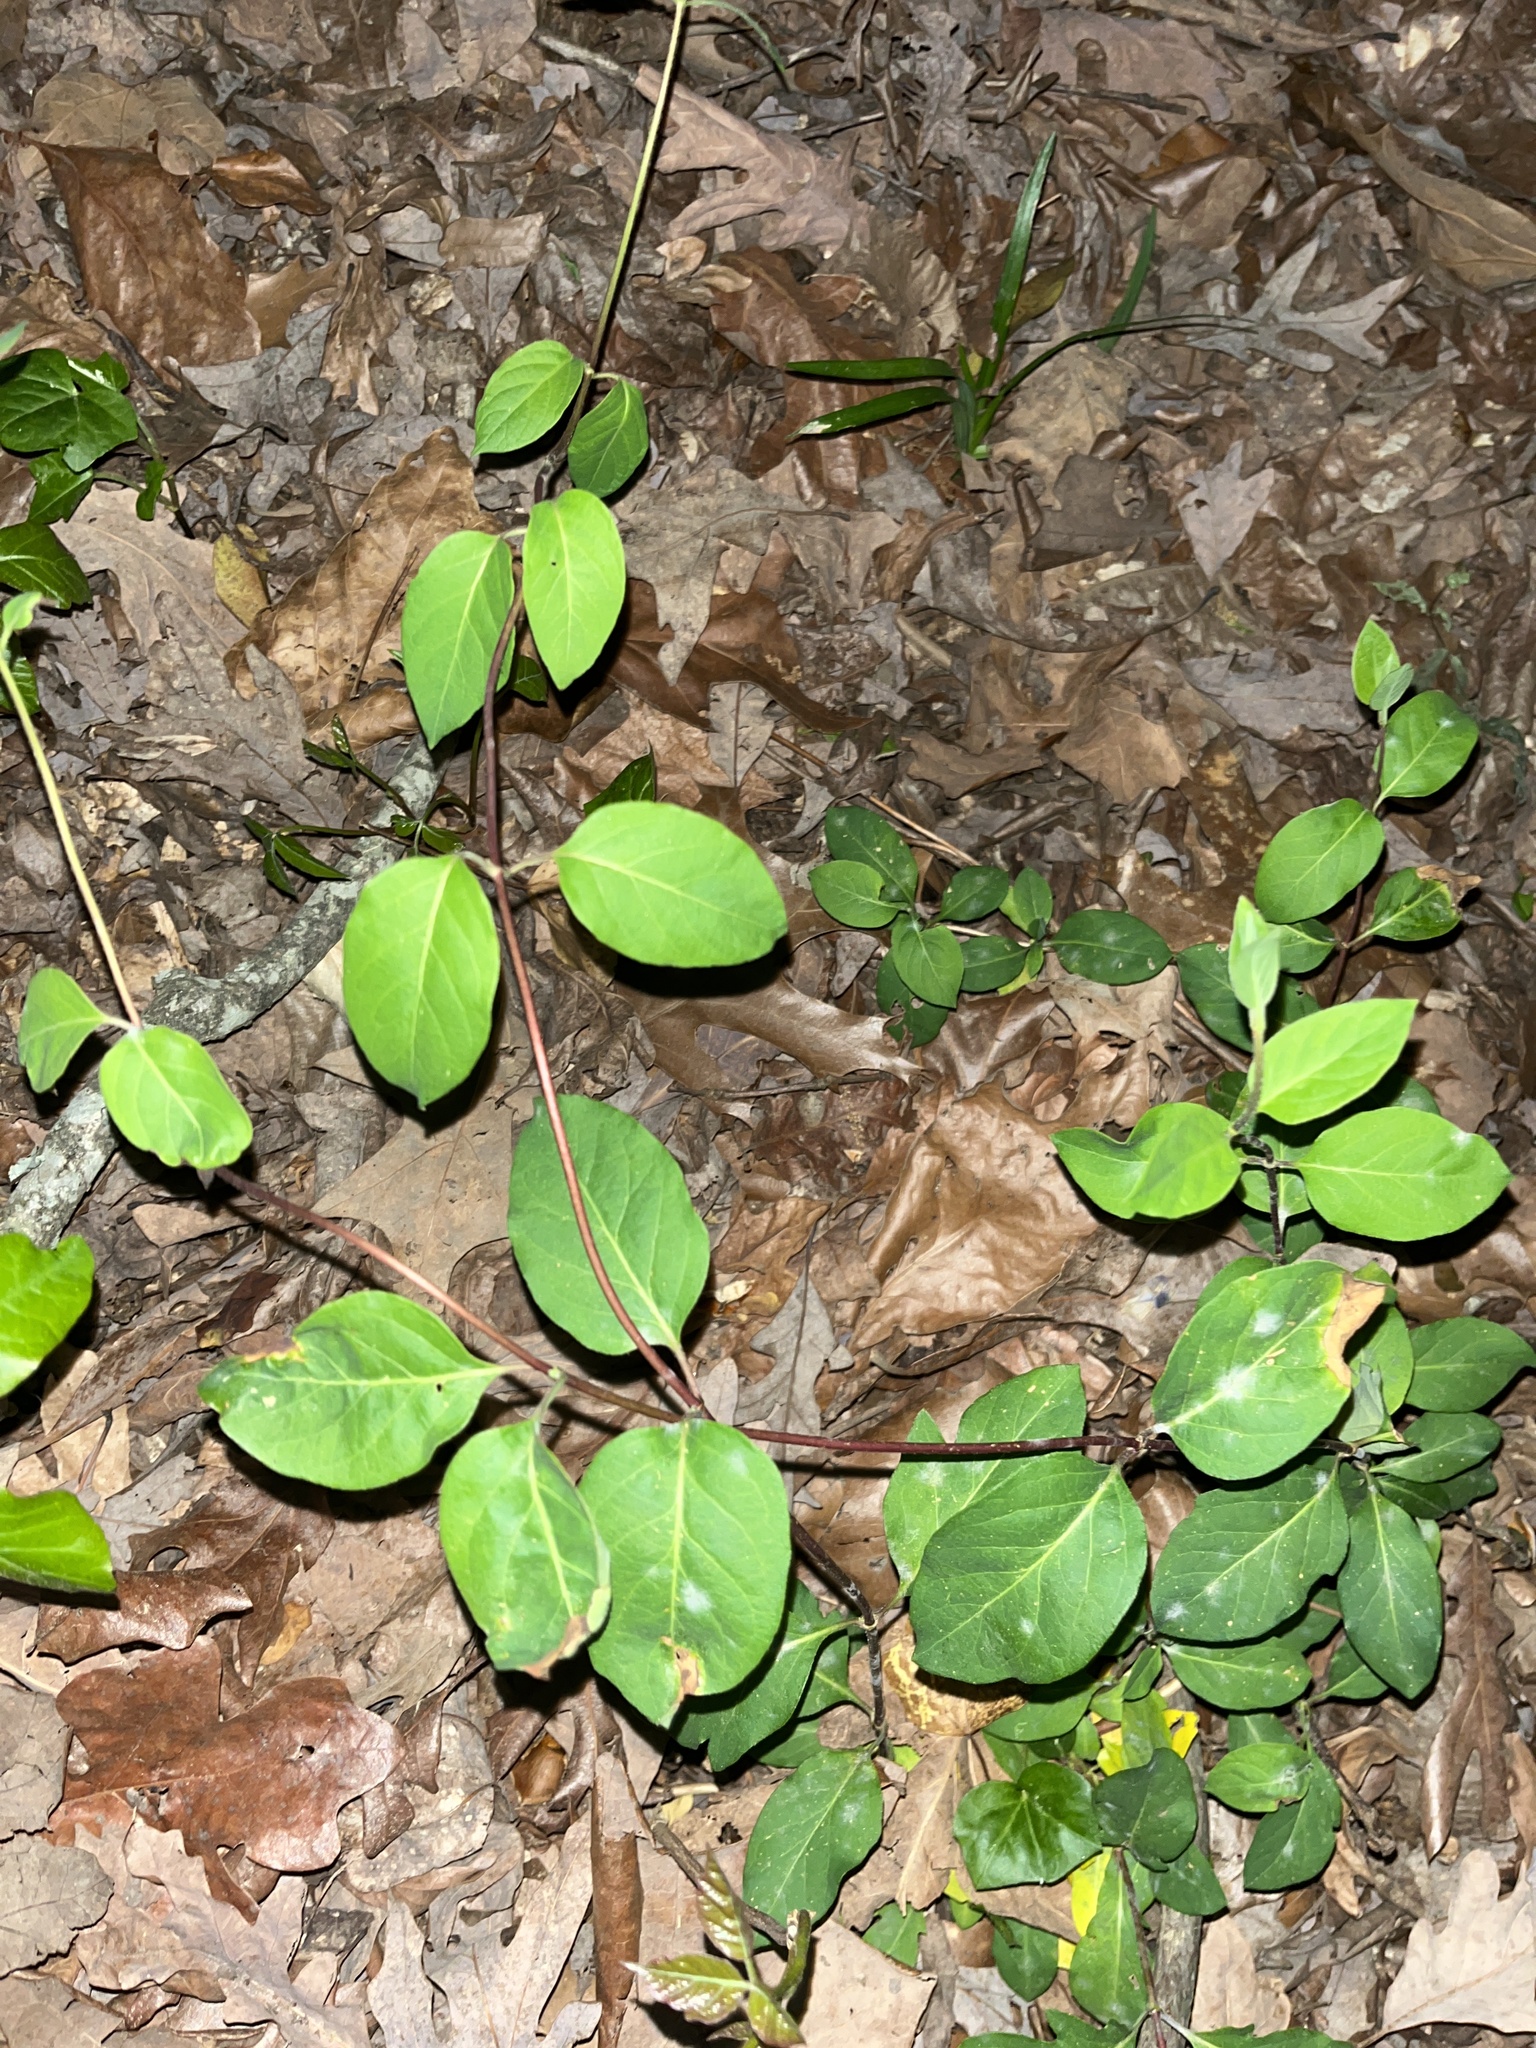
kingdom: Plantae
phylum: Tracheophyta
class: Magnoliopsida
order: Dipsacales
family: Caprifoliaceae
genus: Lonicera
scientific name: Lonicera japonica
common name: Japanese honeysuckle
